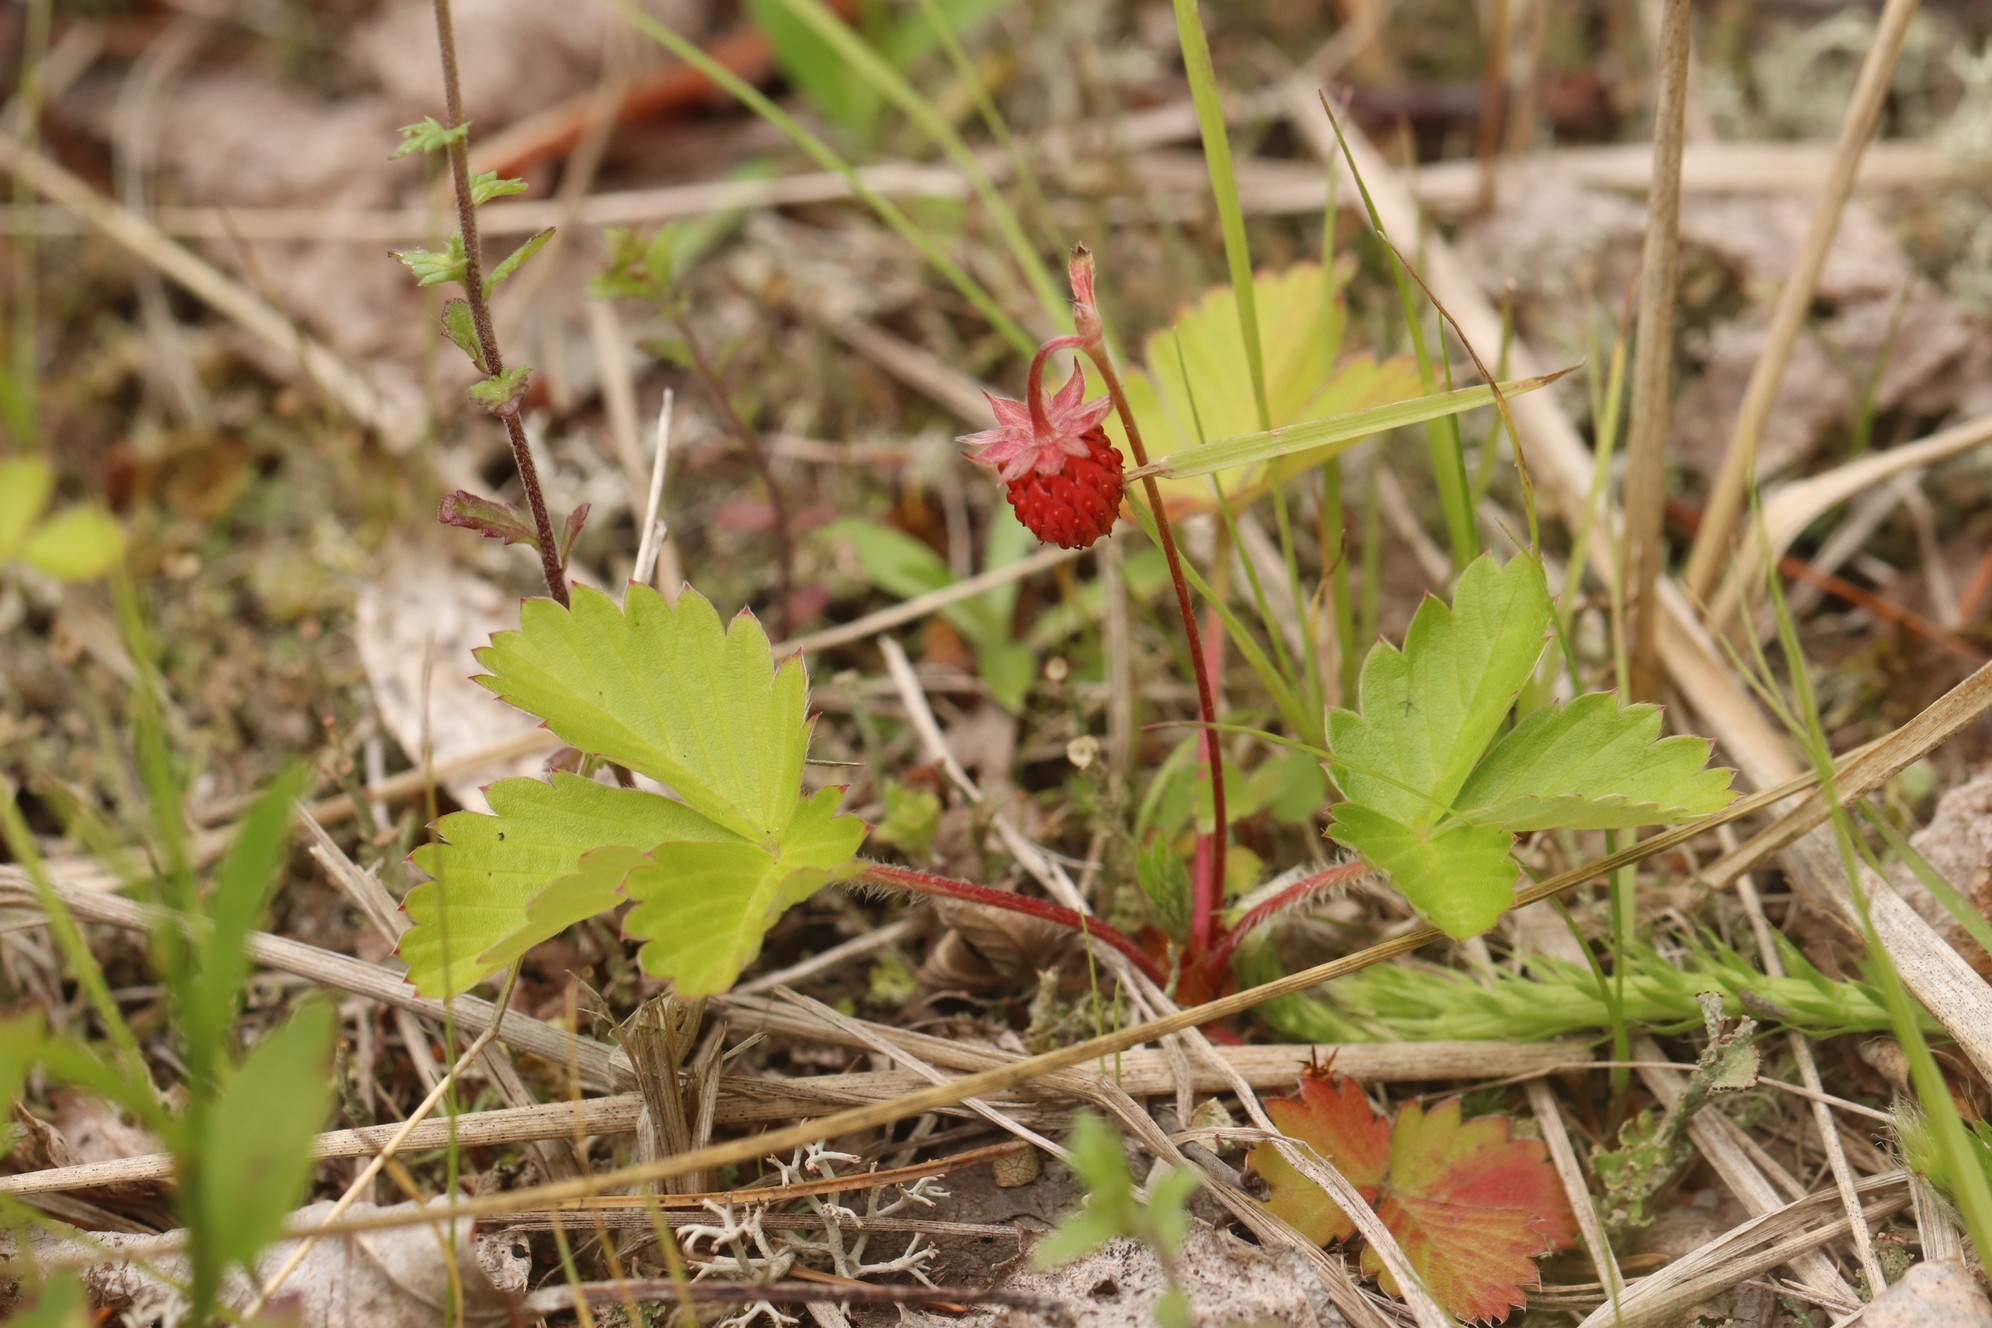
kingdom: Plantae
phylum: Tracheophyta
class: Magnoliopsida
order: Rosales
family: Rosaceae
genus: Fragaria
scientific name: Fragaria vesca
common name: Wild strawberry
